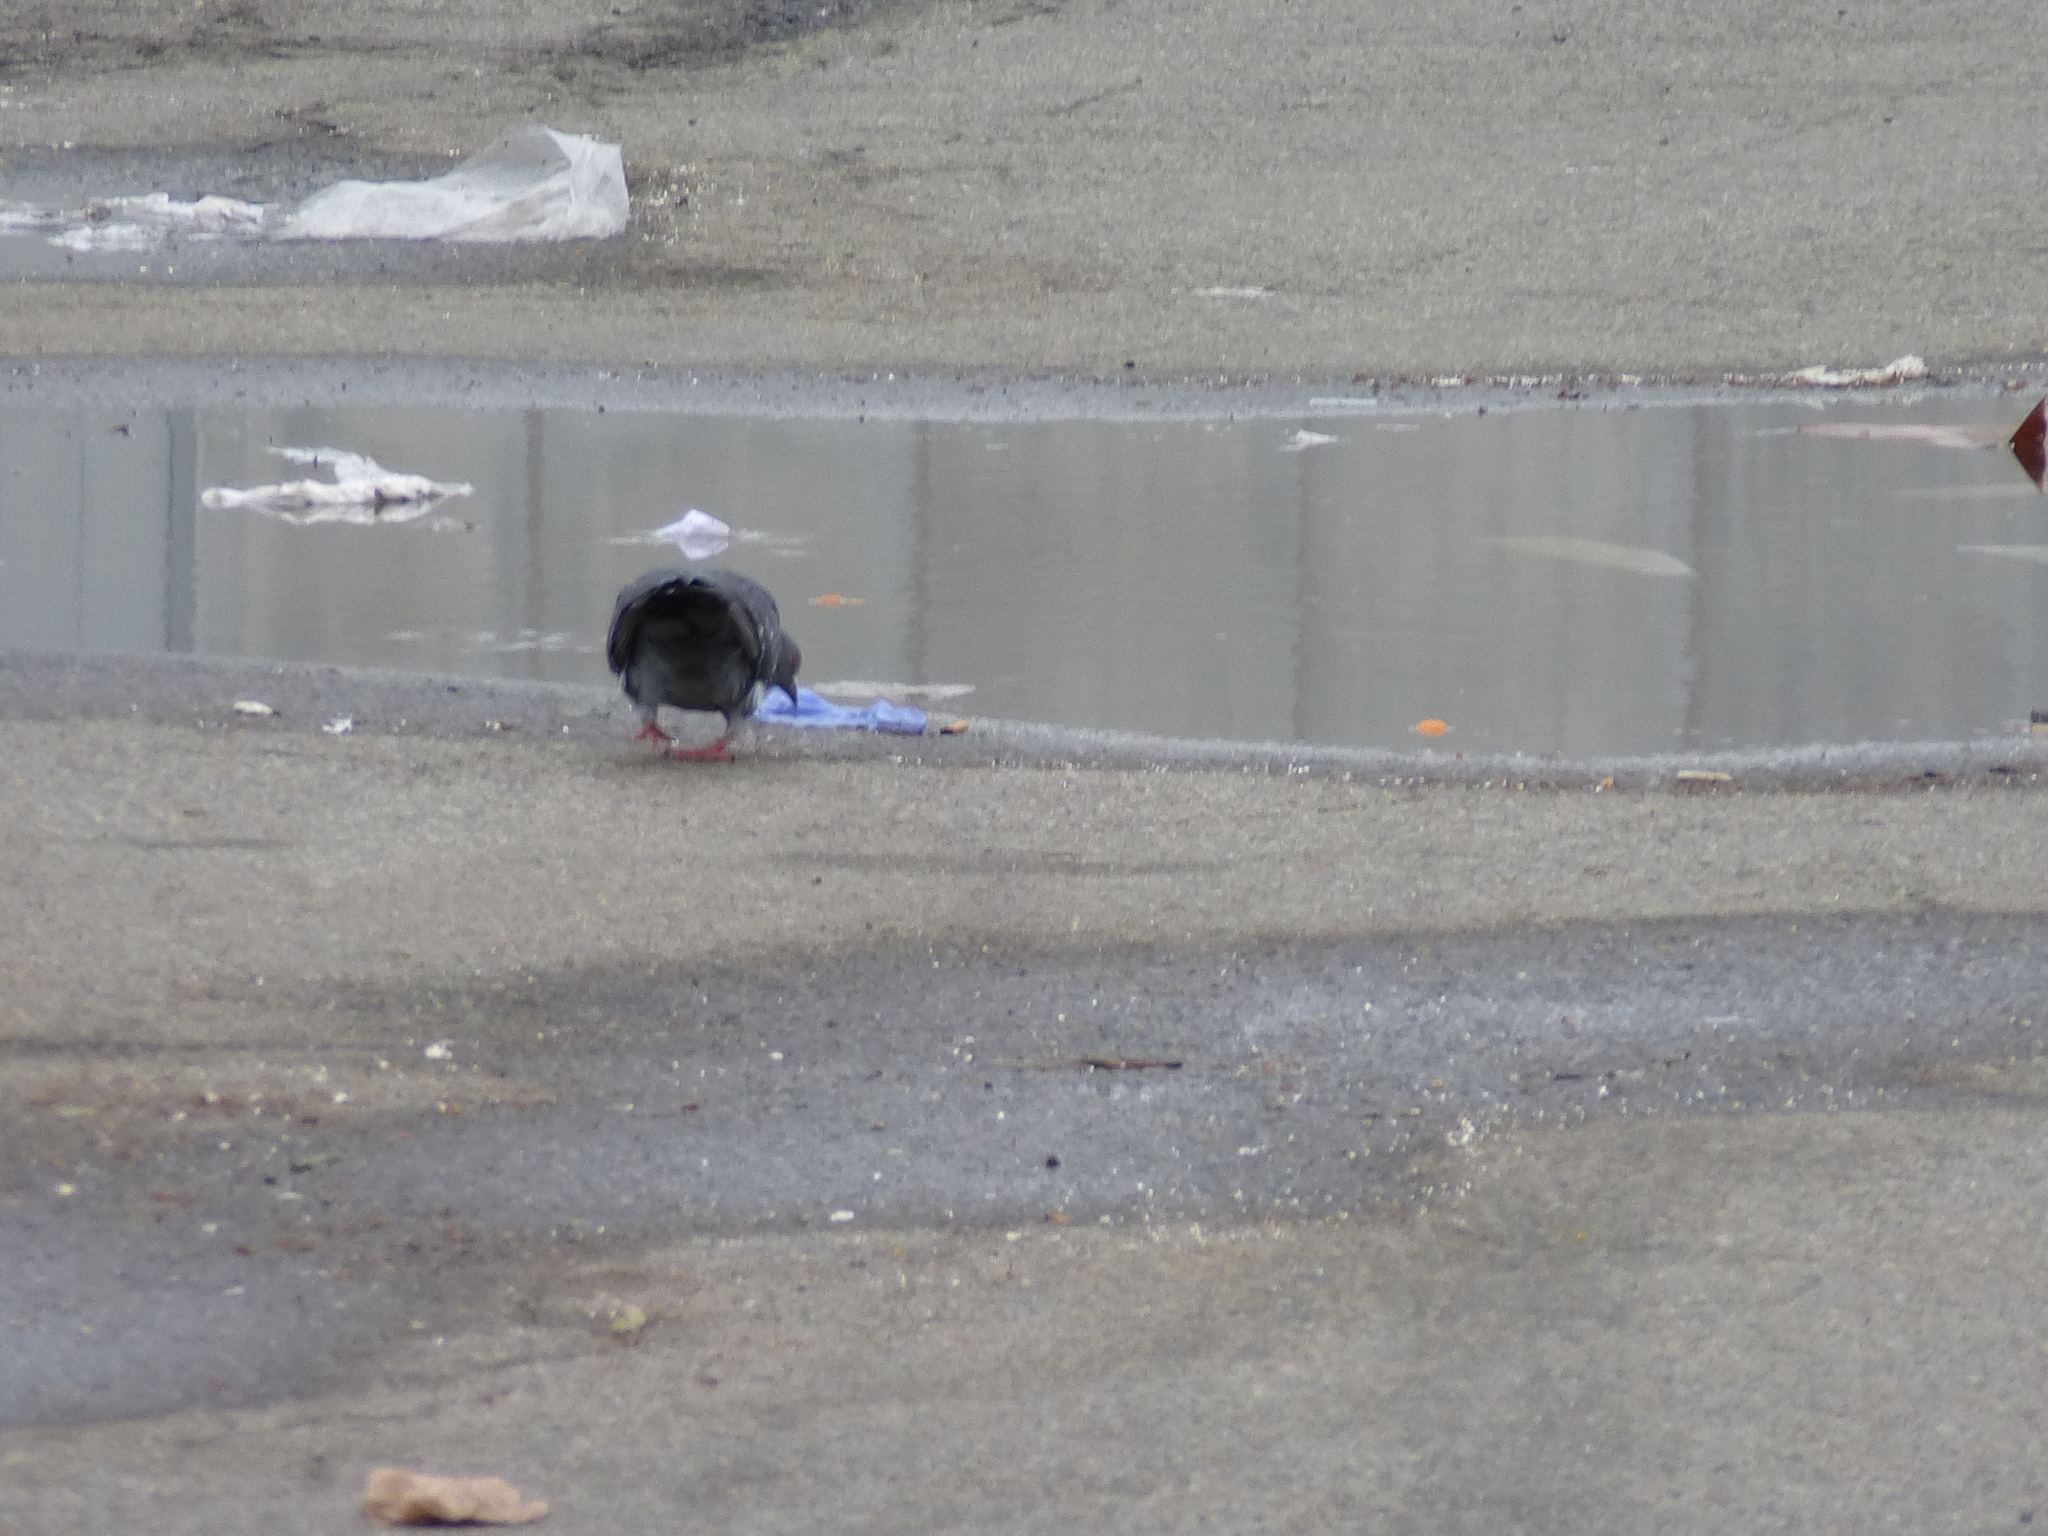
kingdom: Animalia
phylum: Chordata
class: Aves
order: Columbiformes
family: Columbidae
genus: Columba
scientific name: Columba livia
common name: Rock pigeon
